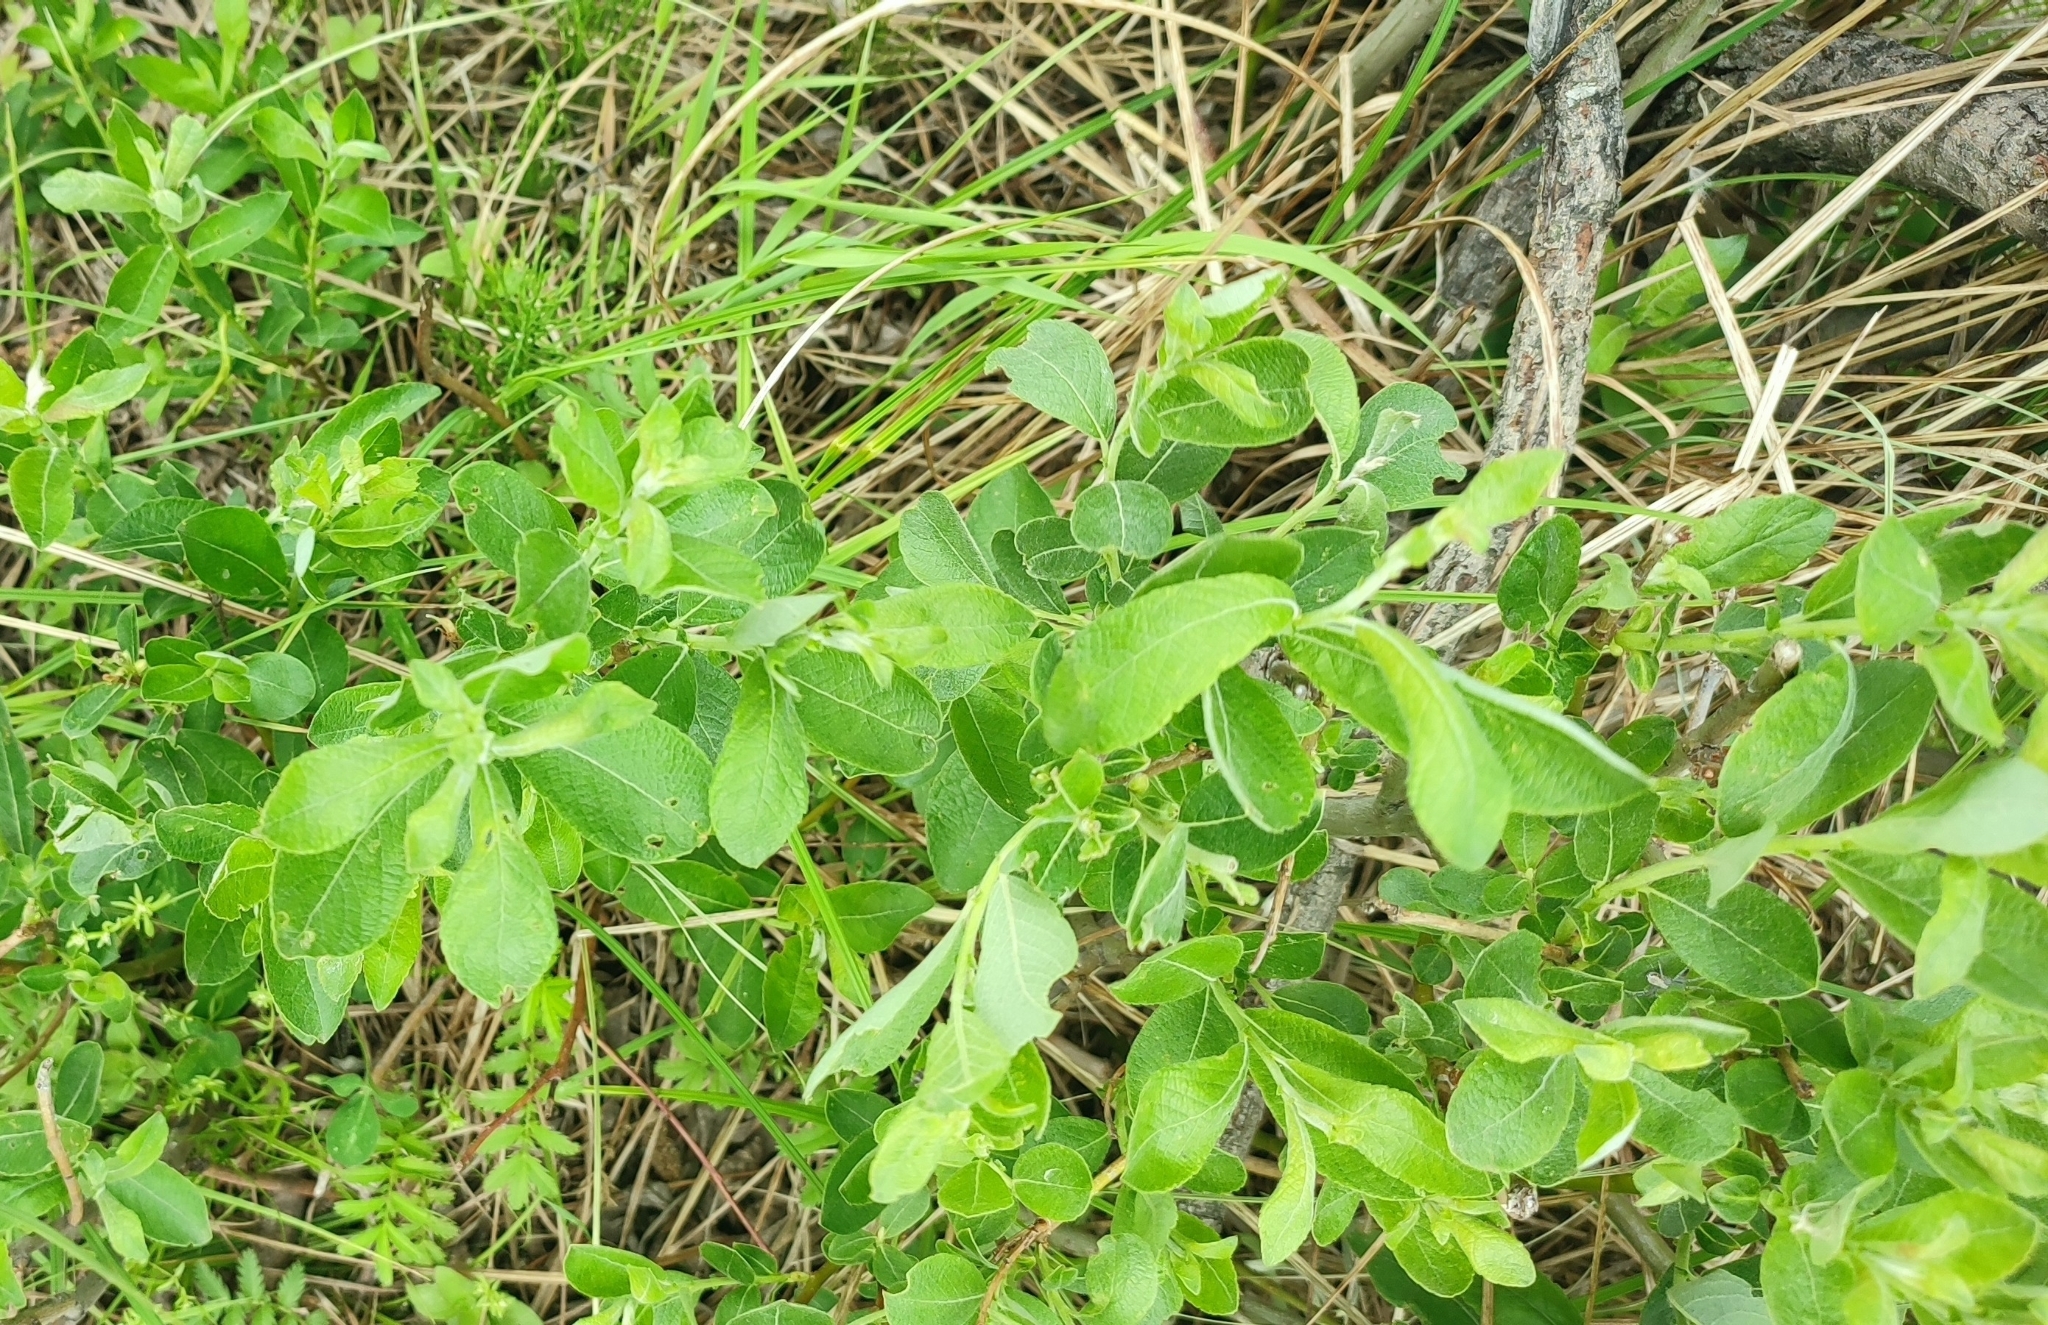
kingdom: Plantae
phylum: Tracheophyta
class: Magnoliopsida
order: Malpighiales
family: Salicaceae
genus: Salix
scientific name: Salix cinerea
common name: Common sallow
